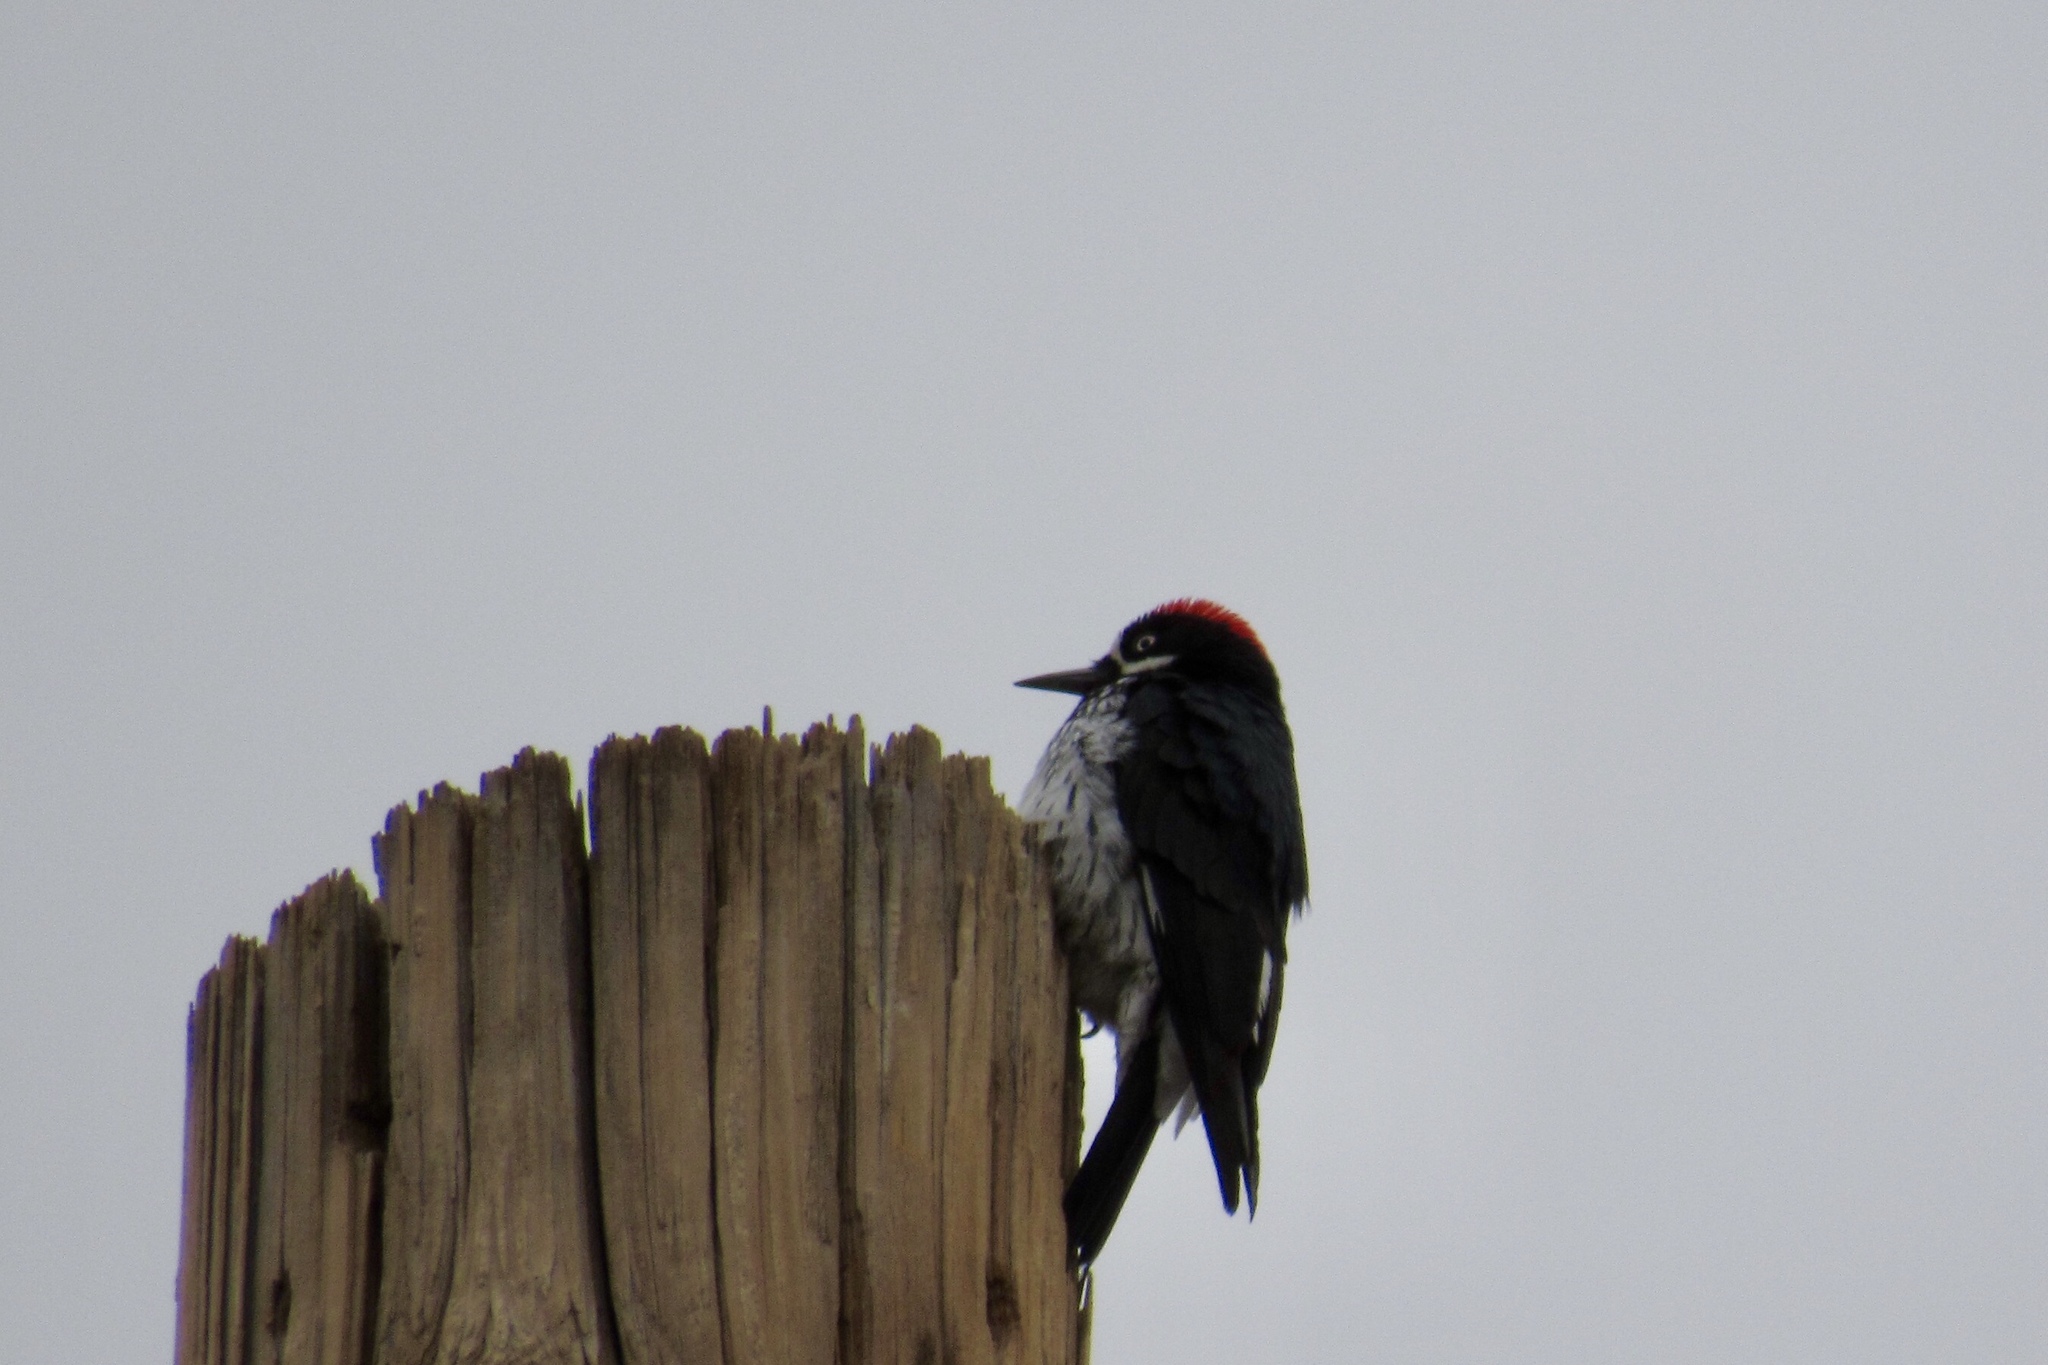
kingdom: Animalia
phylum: Chordata
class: Aves
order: Piciformes
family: Picidae
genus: Melanerpes
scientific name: Melanerpes formicivorus
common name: Acorn woodpecker
